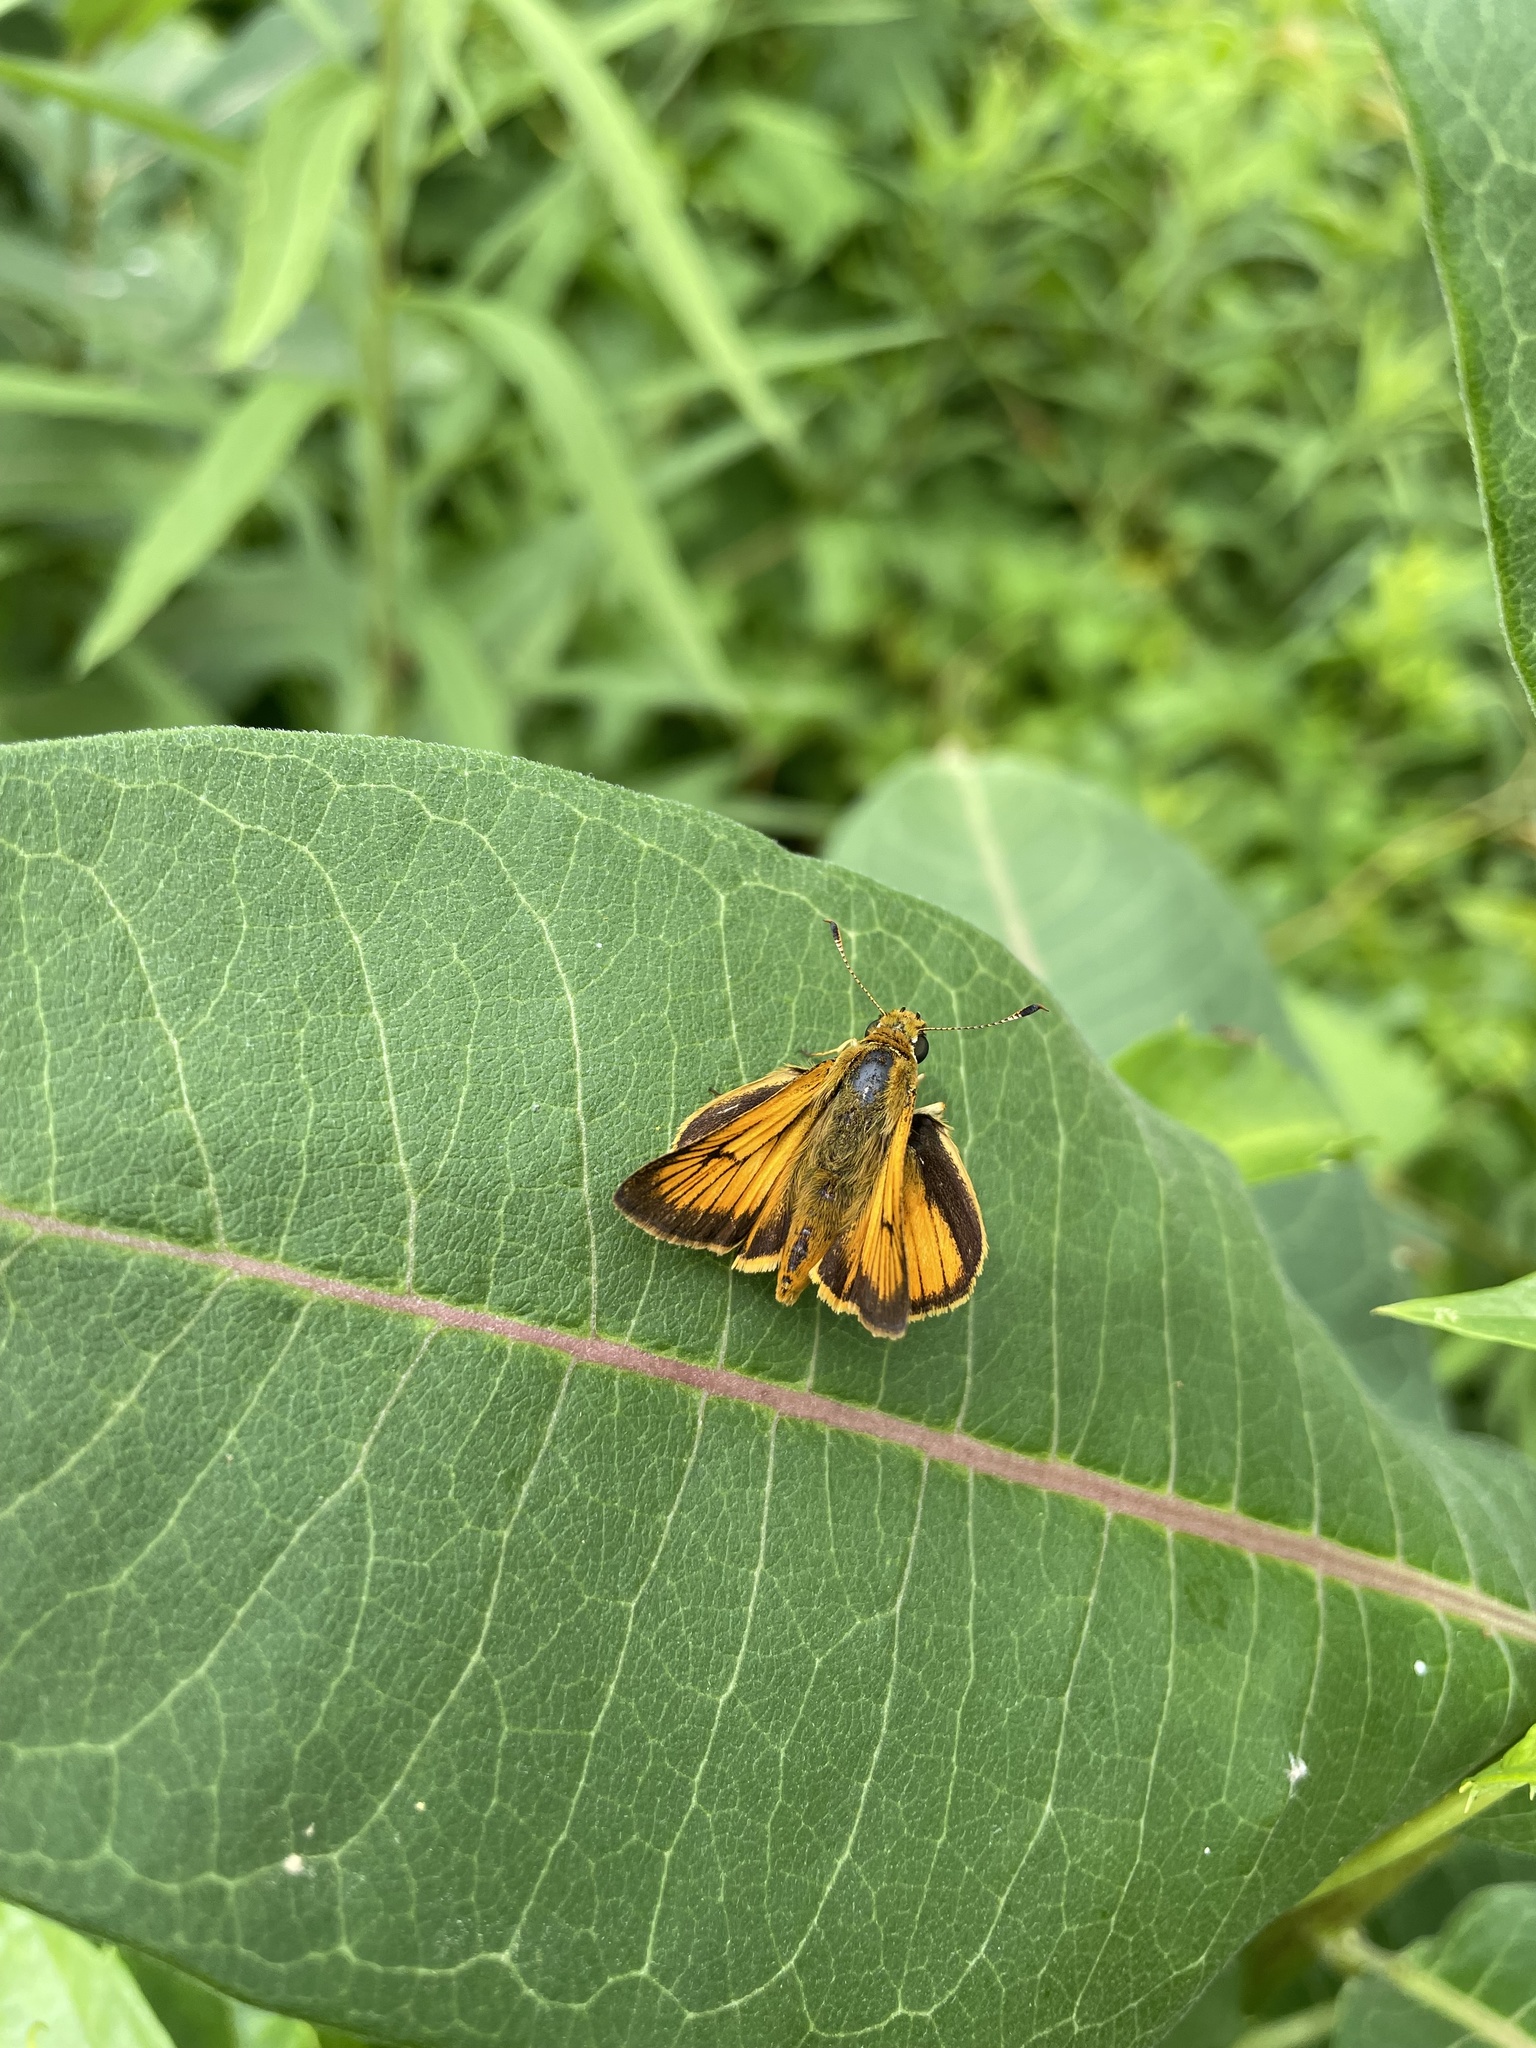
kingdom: Animalia
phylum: Arthropoda
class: Insecta
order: Lepidoptera
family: Hesperiidae
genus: Atrytone
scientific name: Atrytone delaware
